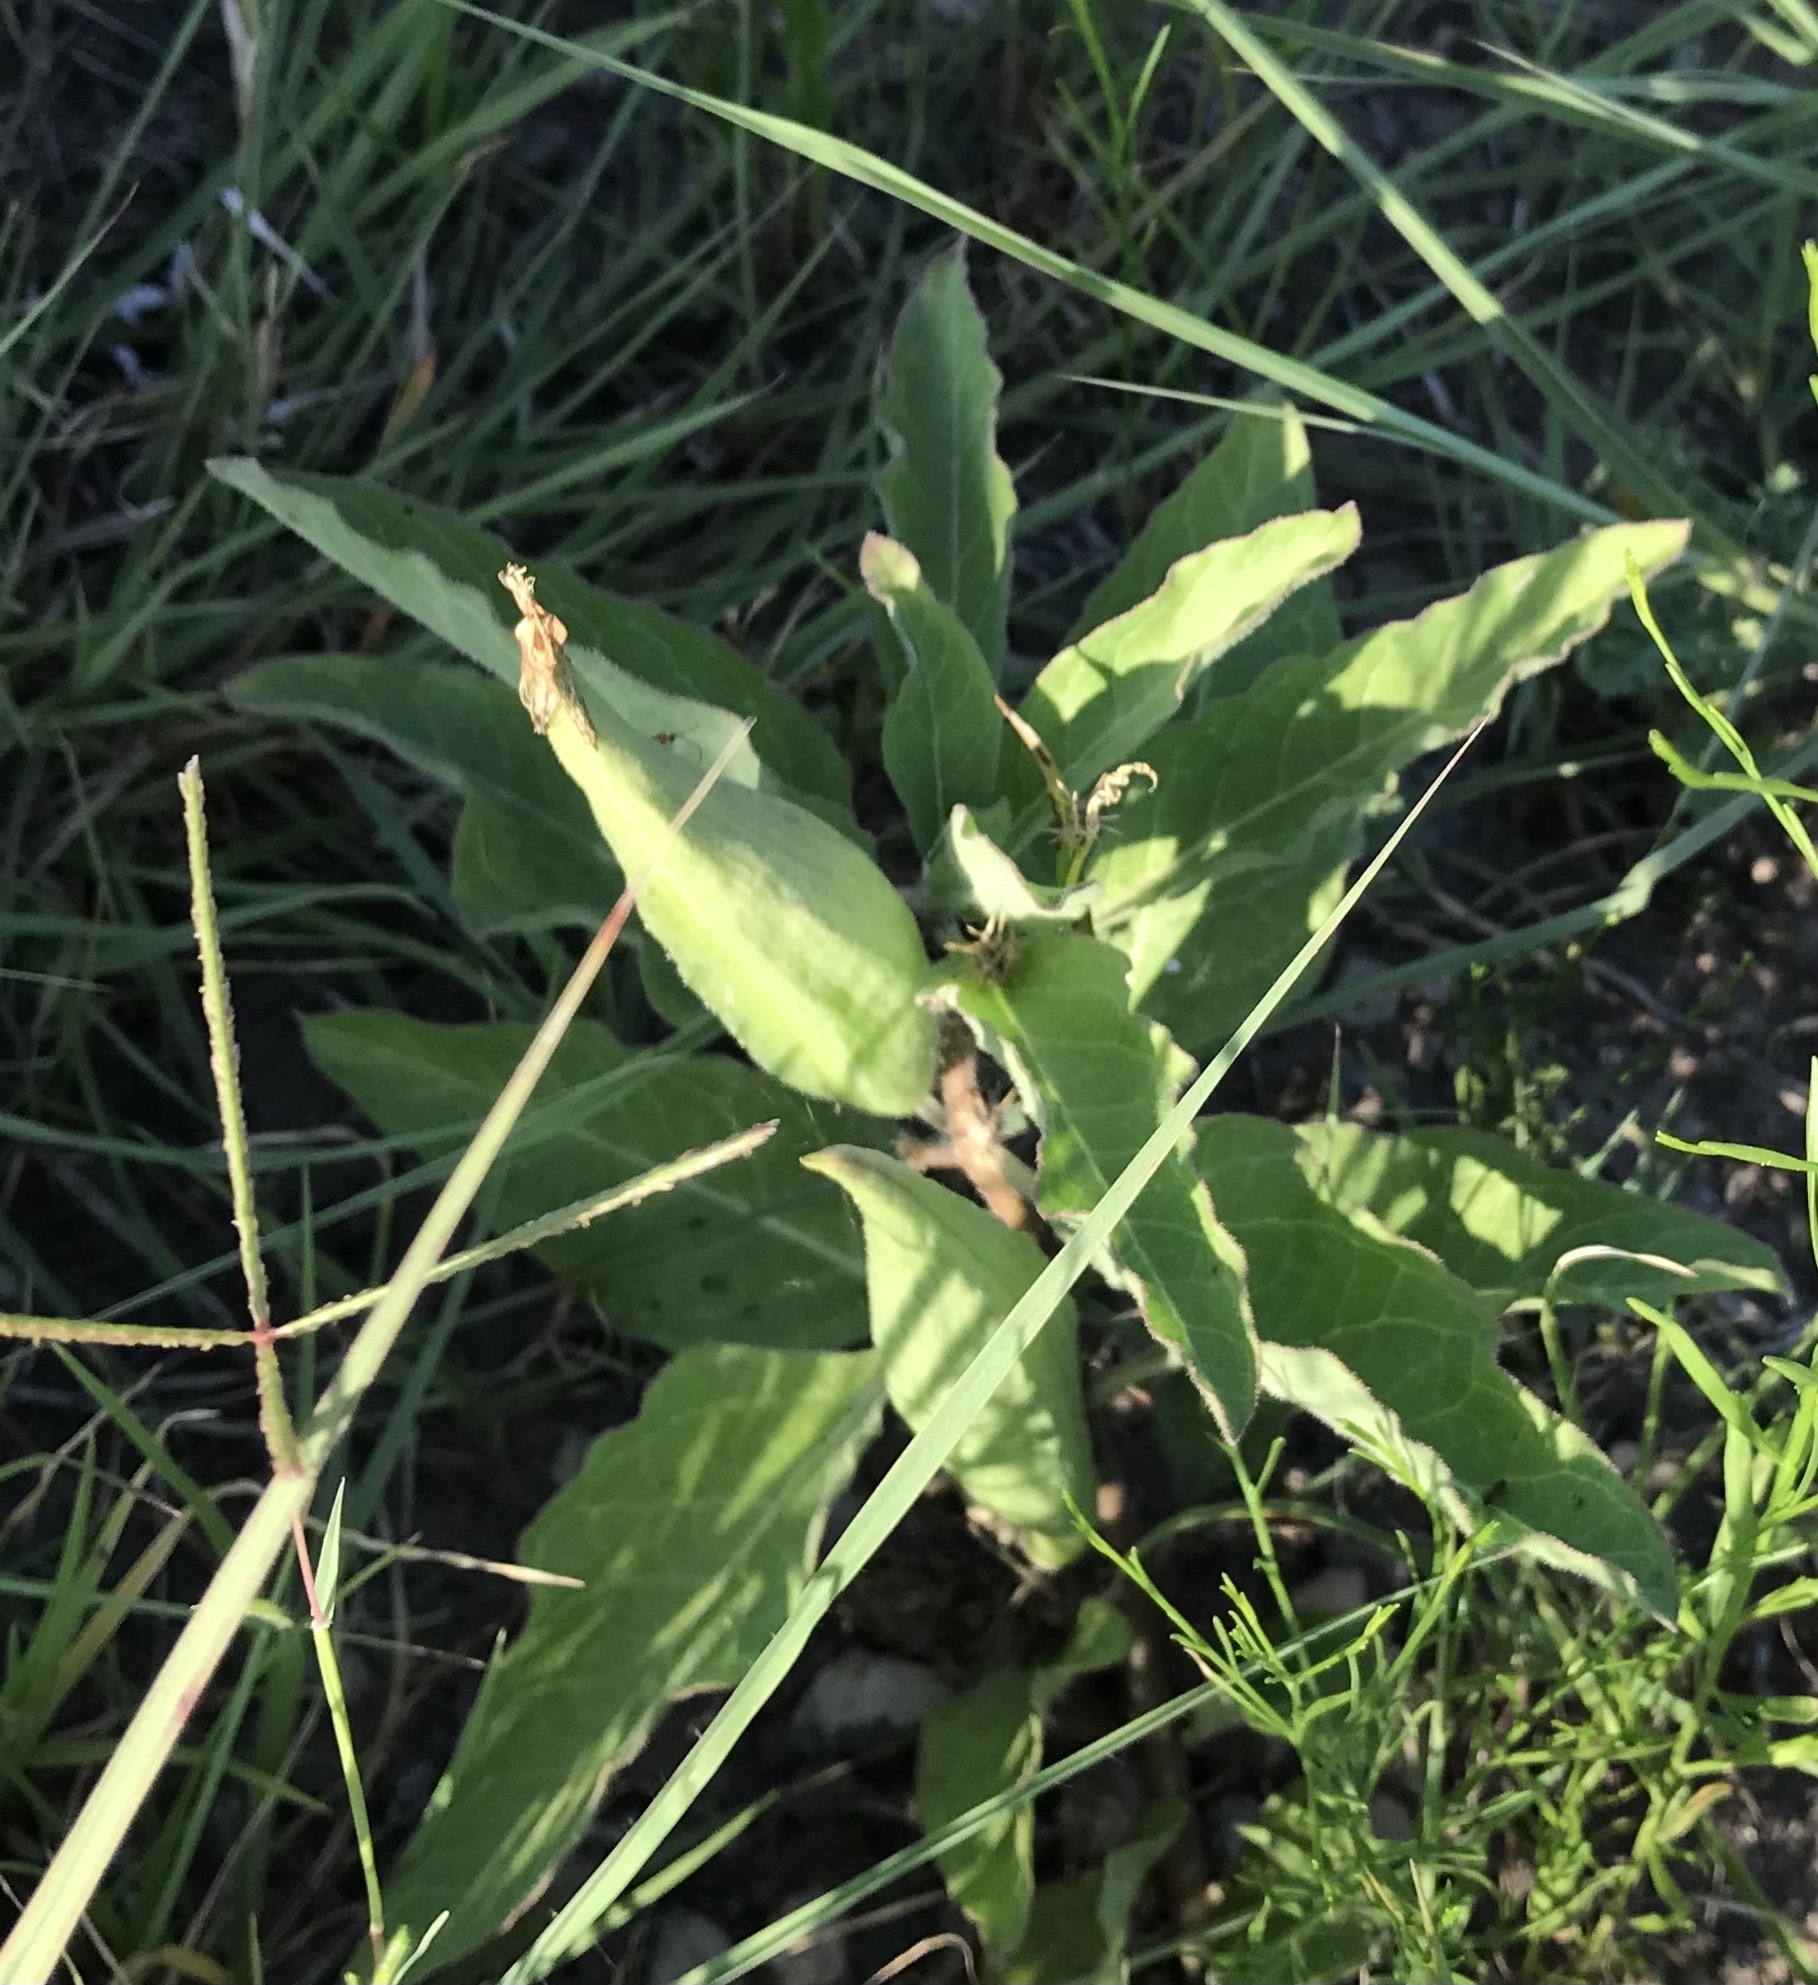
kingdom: Plantae
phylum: Tracheophyta
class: Magnoliopsida
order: Gentianales
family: Apocynaceae
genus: Asclepias
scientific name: Asclepias oenotheroides
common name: Zizotes milkweed
